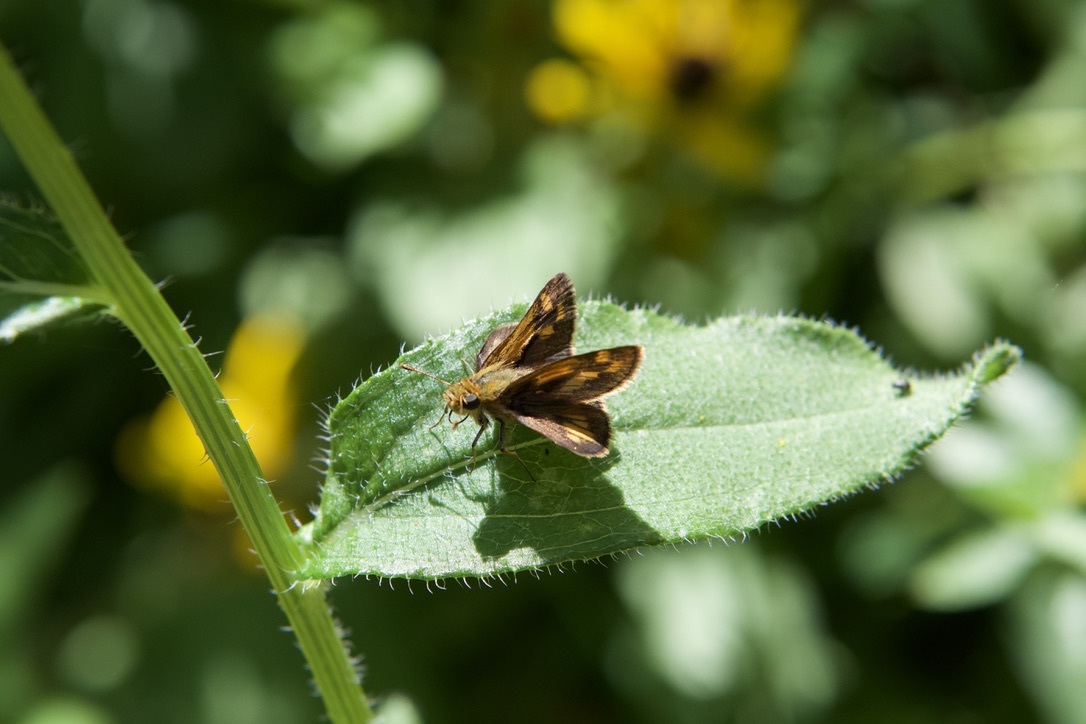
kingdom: Animalia
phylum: Arthropoda
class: Insecta
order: Lepidoptera
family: Hesperiidae
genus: Polites
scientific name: Polites coras
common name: Peck's skipper
